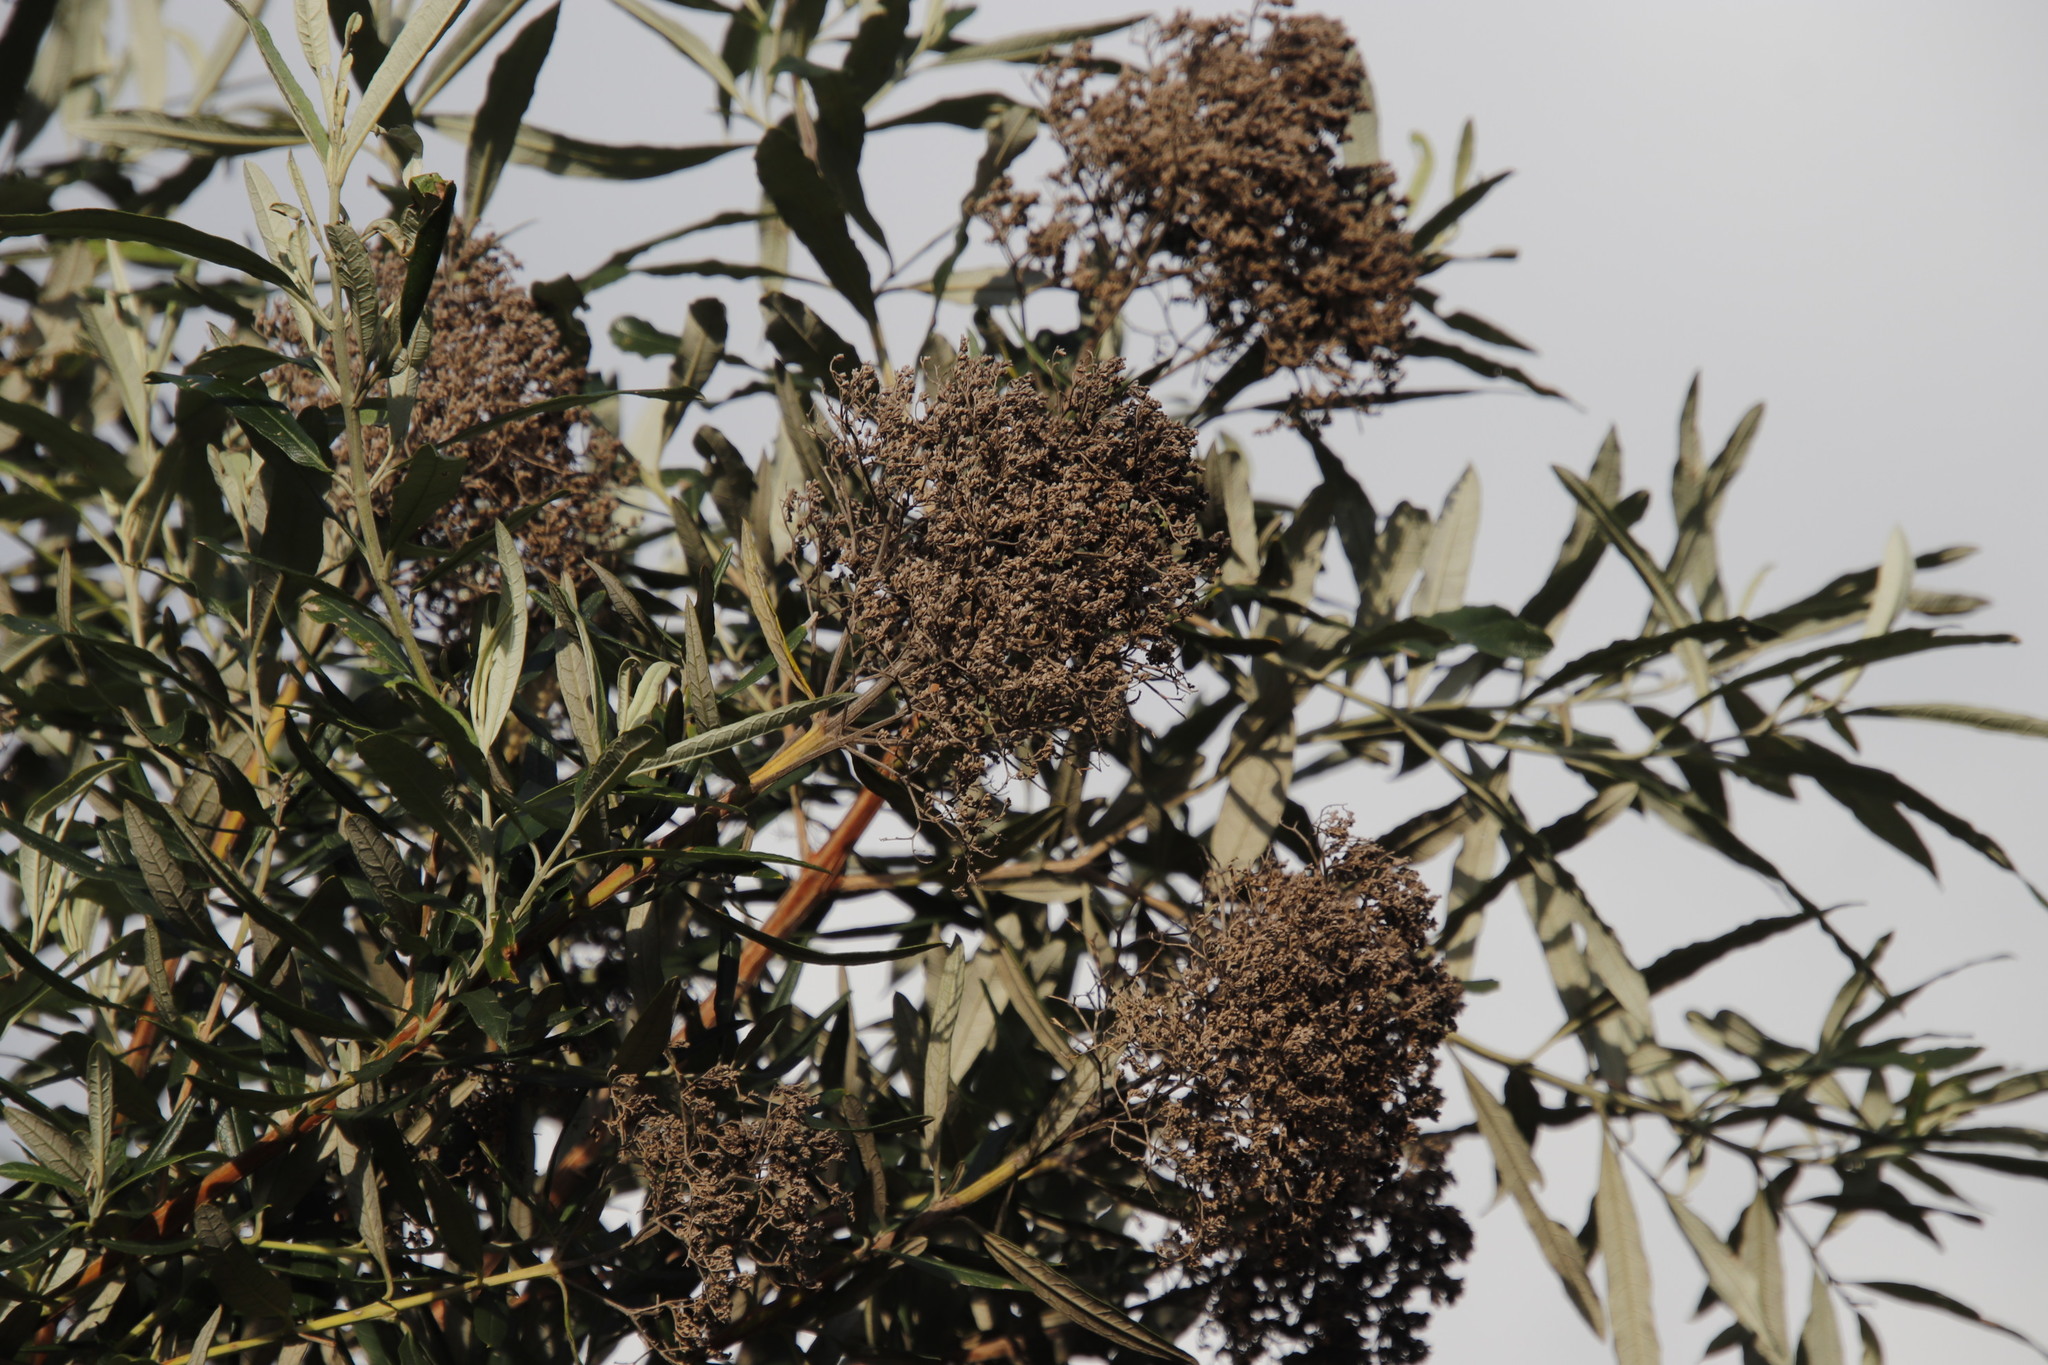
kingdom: Plantae
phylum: Tracheophyta
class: Magnoliopsida
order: Lamiales
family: Scrophulariaceae
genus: Buddleja
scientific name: Buddleja saligna
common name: False olive
